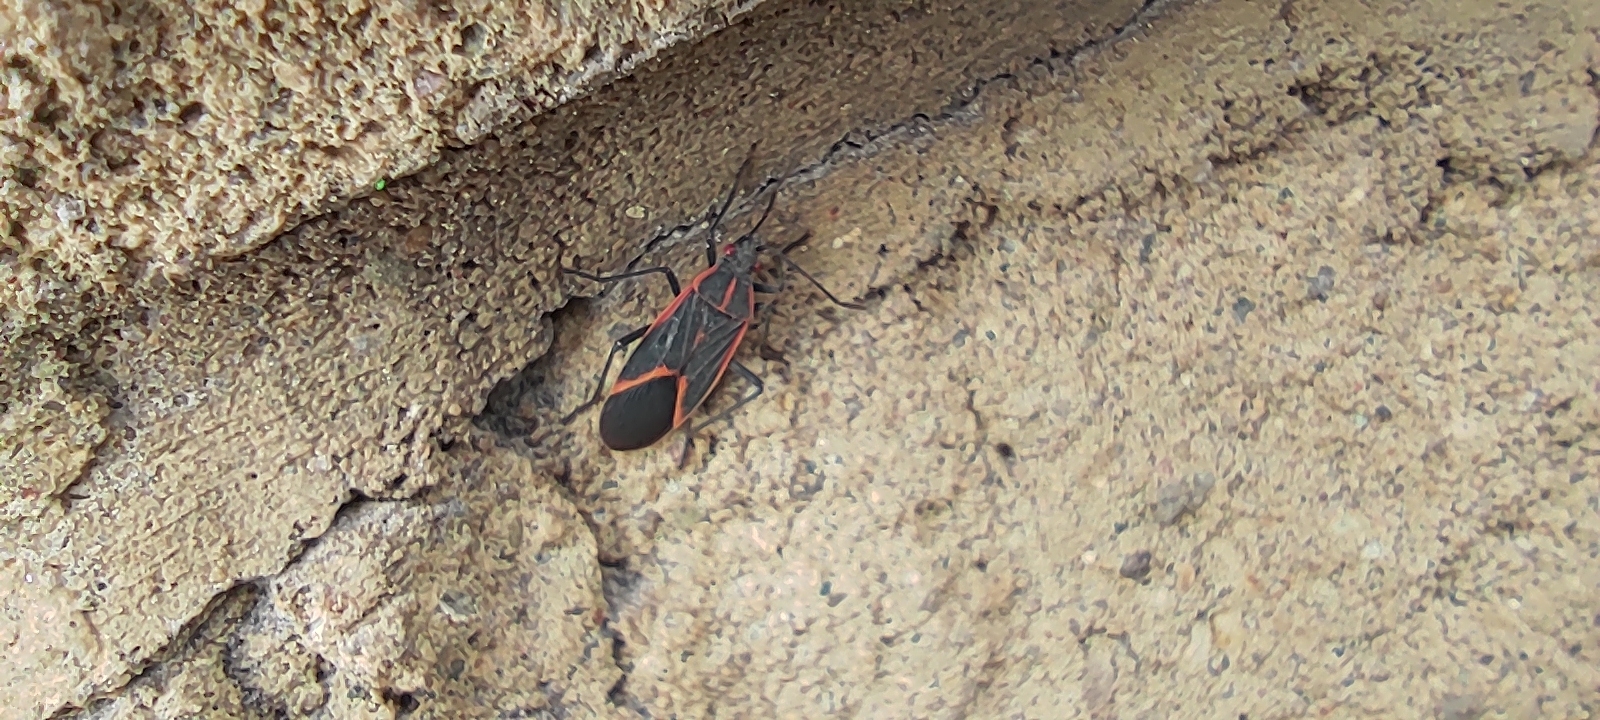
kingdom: Animalia
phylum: Arthropoda
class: Insecta
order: Hemiptera
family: Rhopalidae
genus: Boisea
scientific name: Boisea trivittata
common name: Boxelder bug
